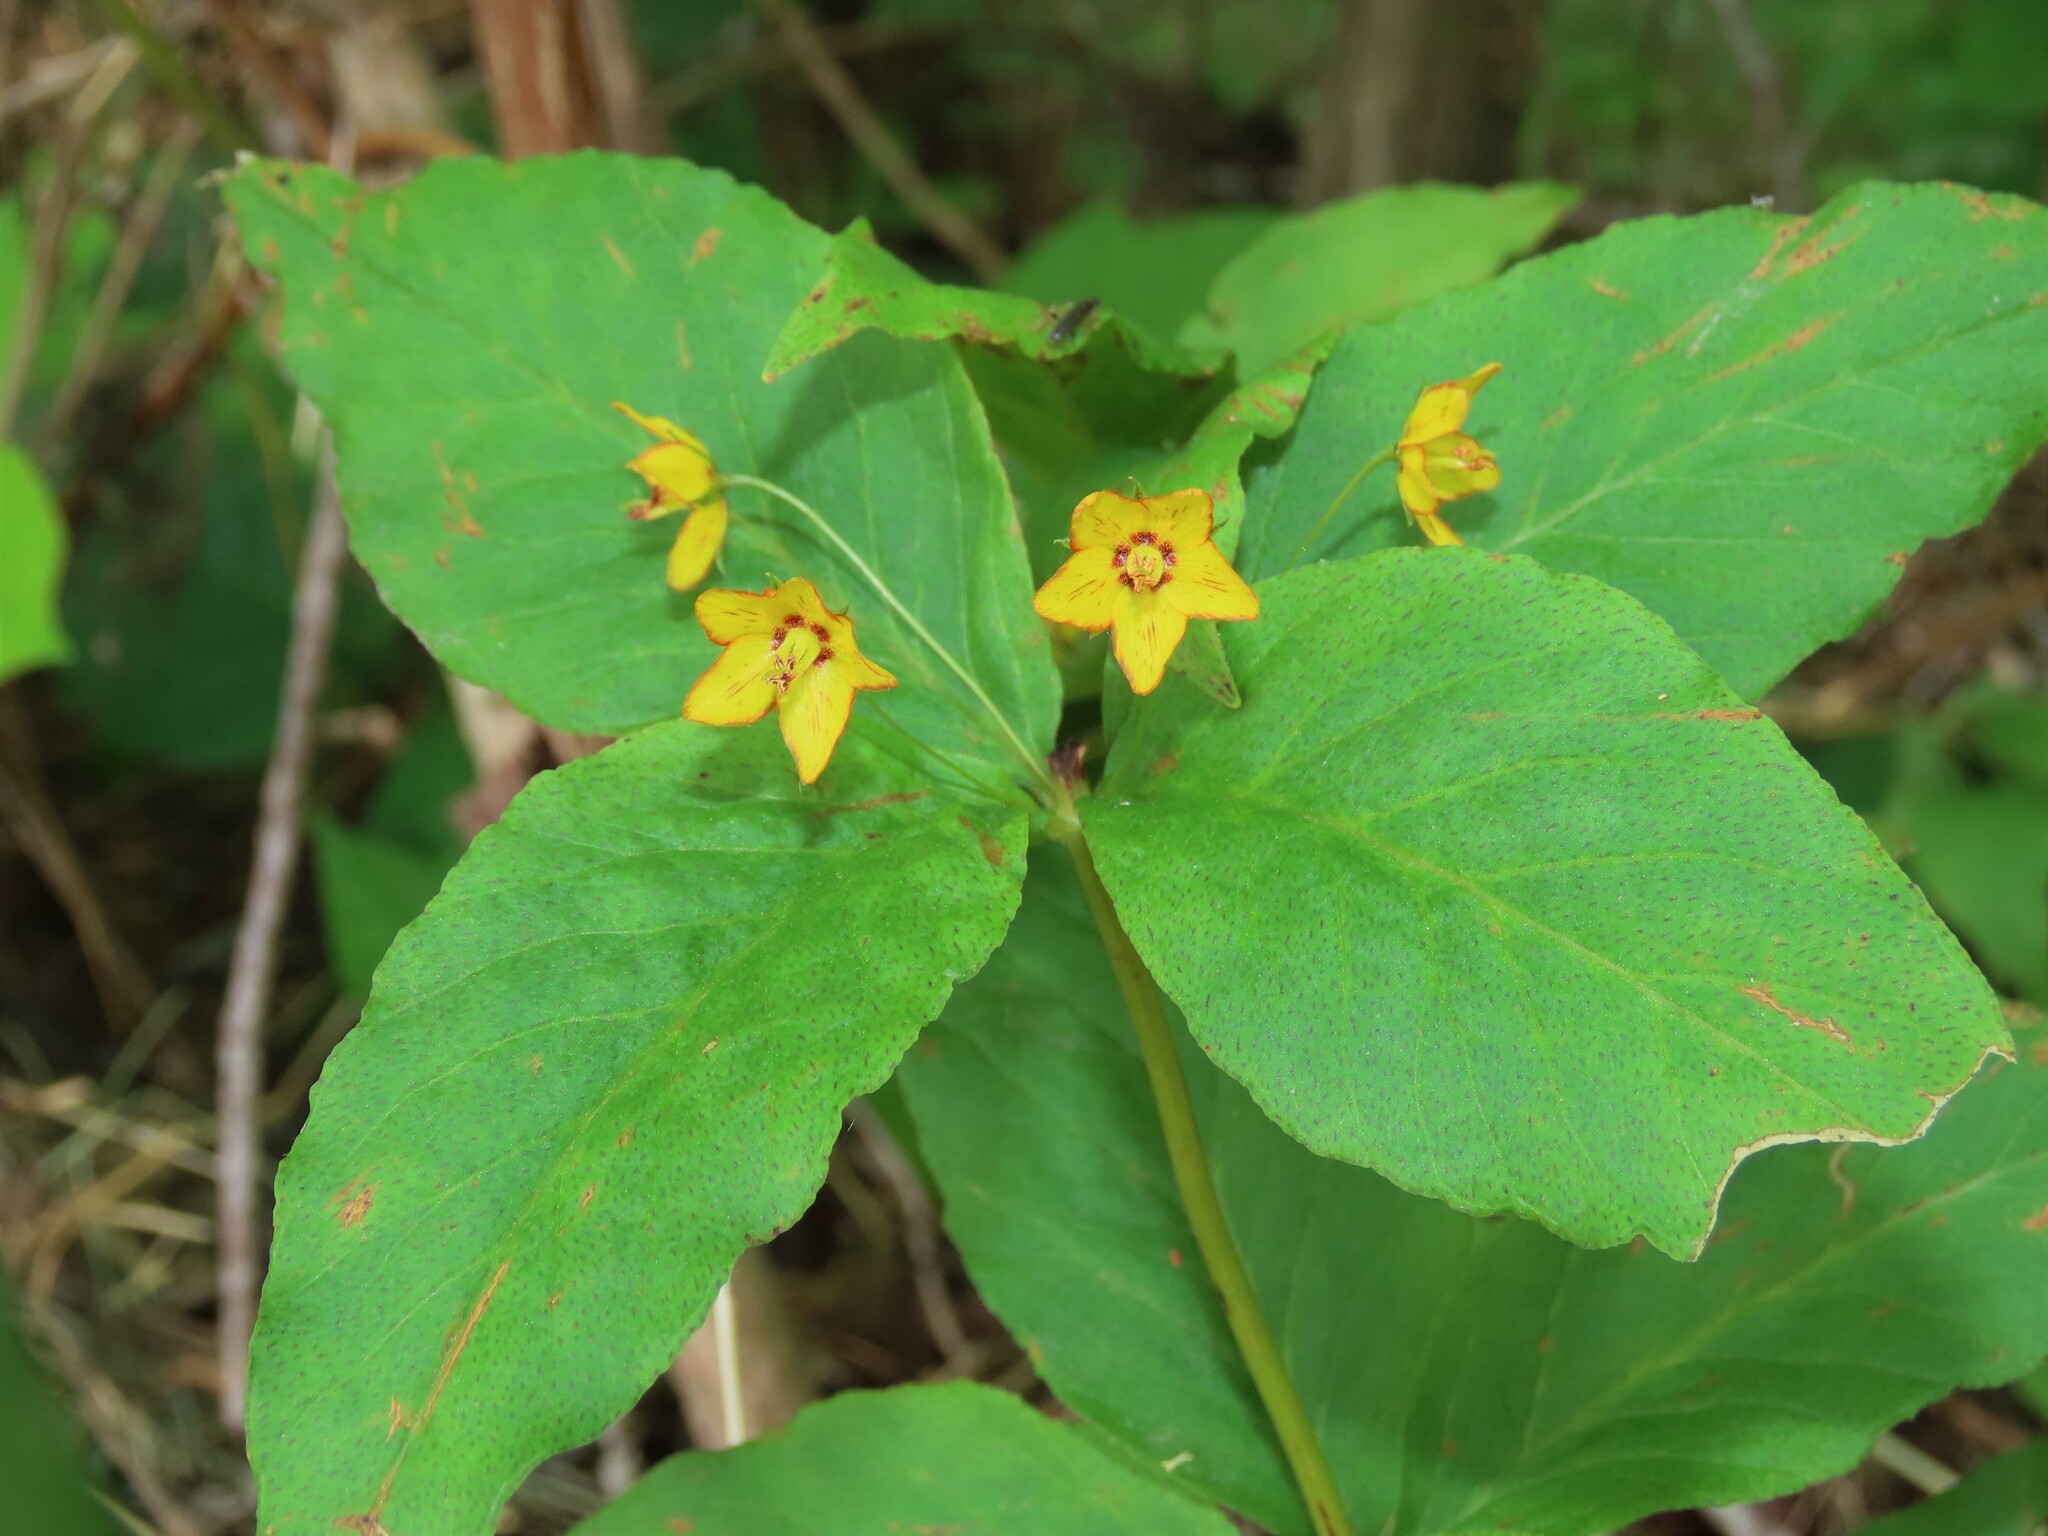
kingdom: Plantae
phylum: Tracheophyta
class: Magnoliopsida
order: Ericales
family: Primulaceae
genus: Lysimachia
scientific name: Lysimachia quadrifolia
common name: Whorled loosestrife
